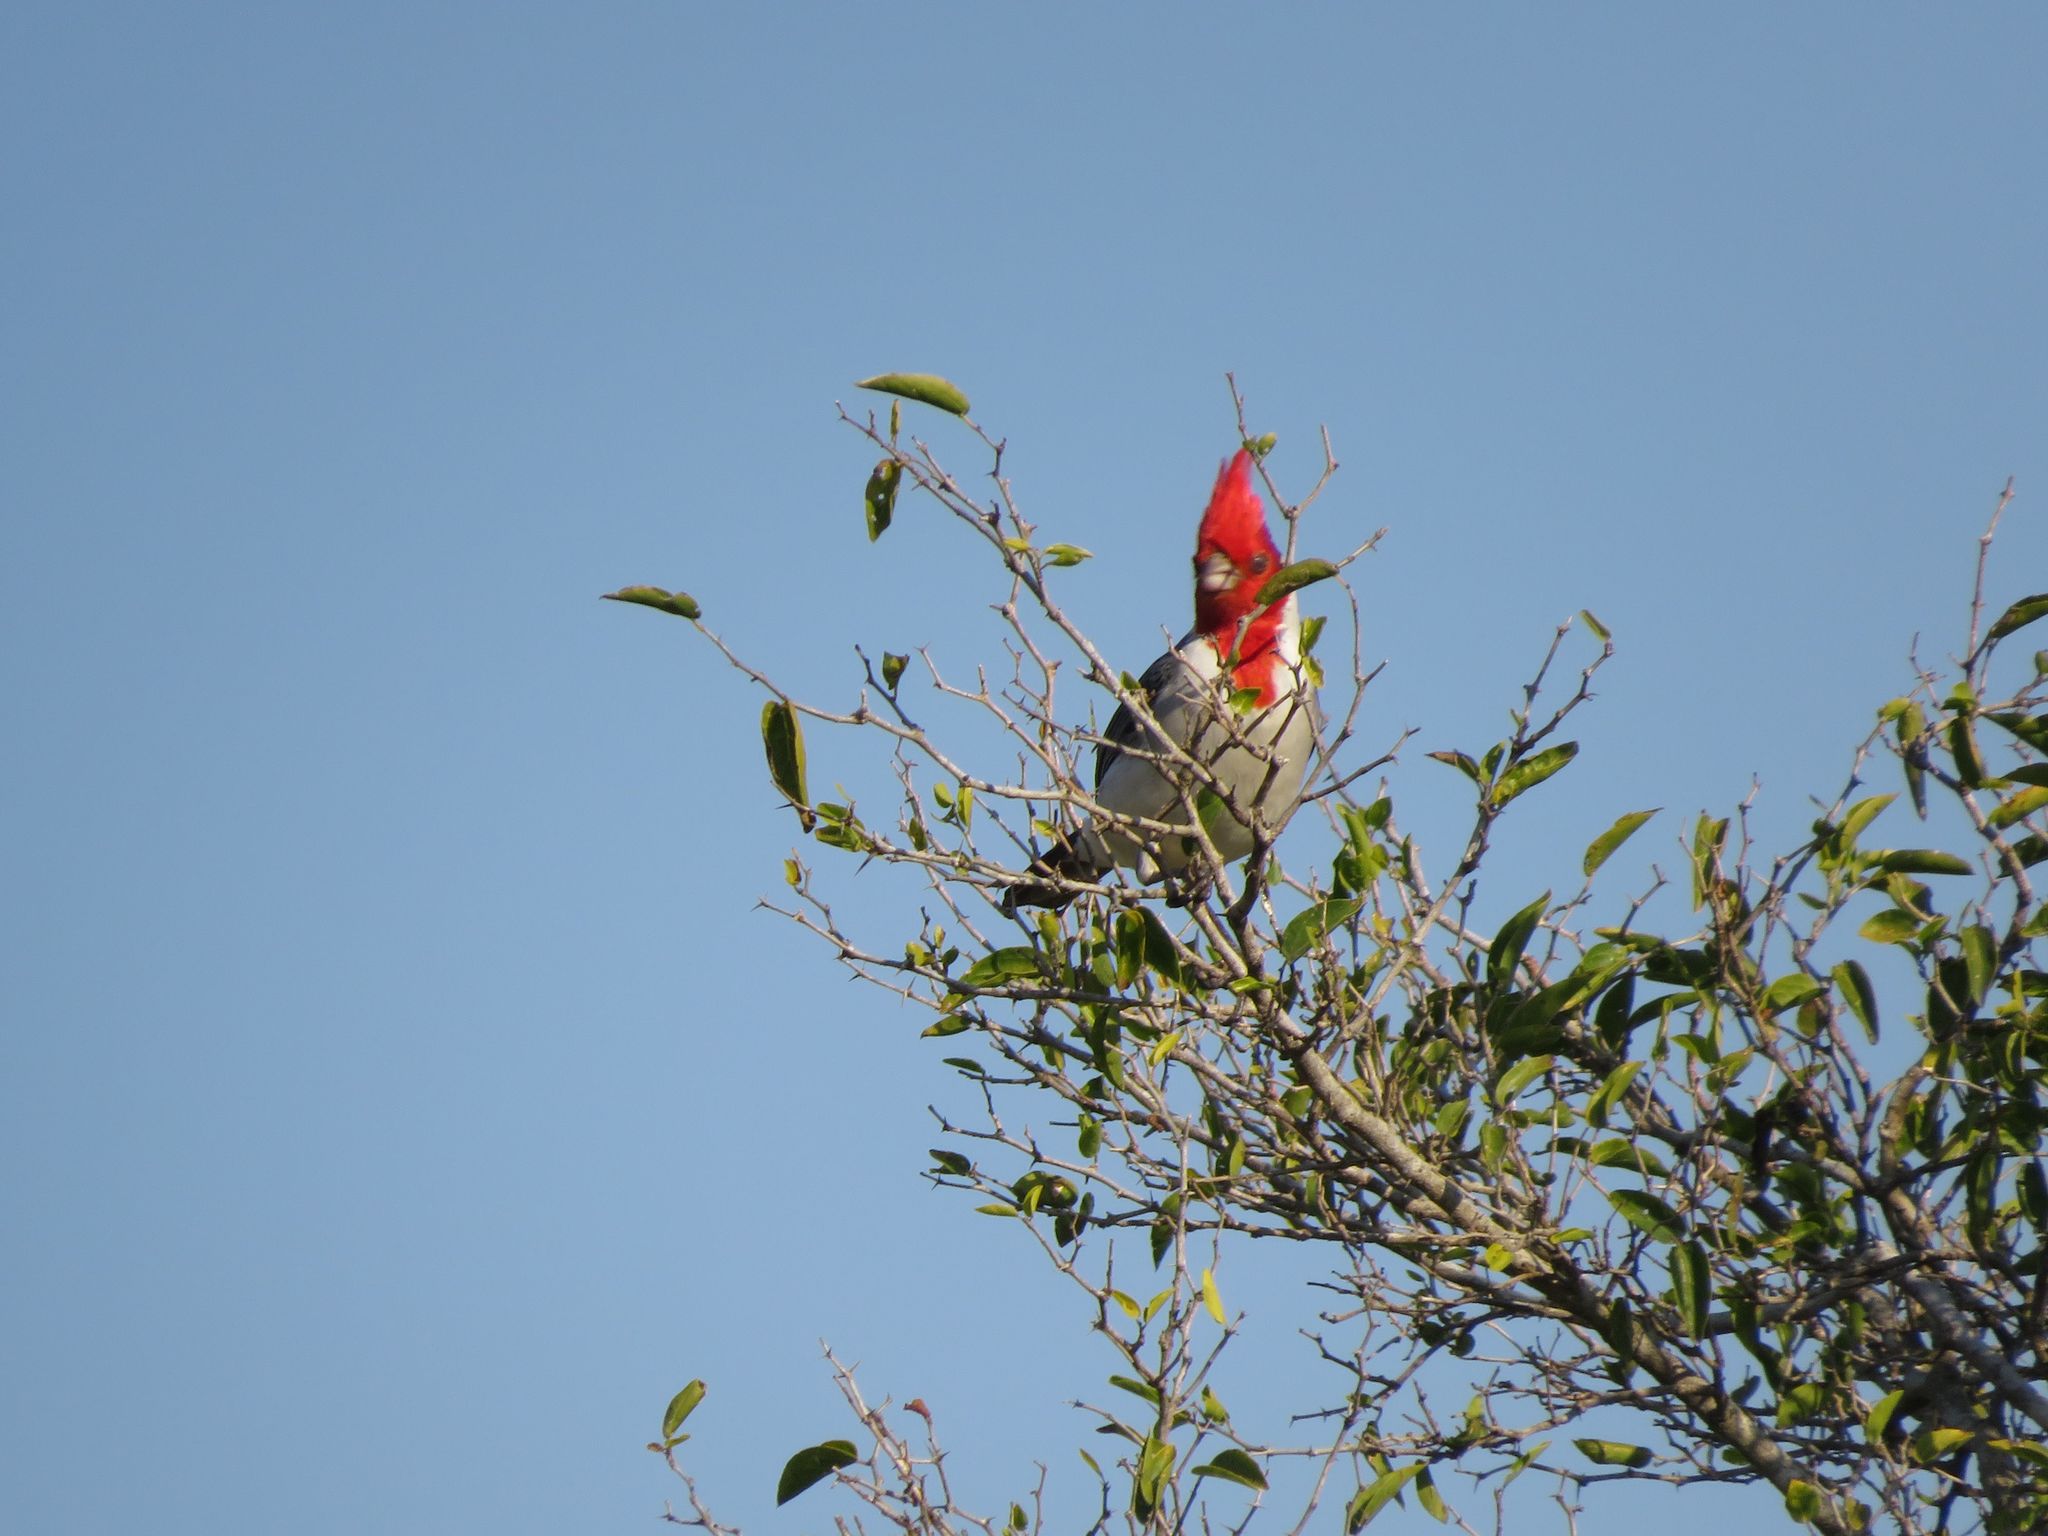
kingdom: Animalia
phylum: Chordata
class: Aves
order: Passeriformes
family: Thraupidae
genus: Paroaria
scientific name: Paroaria coronata
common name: Red-crested cardinal
